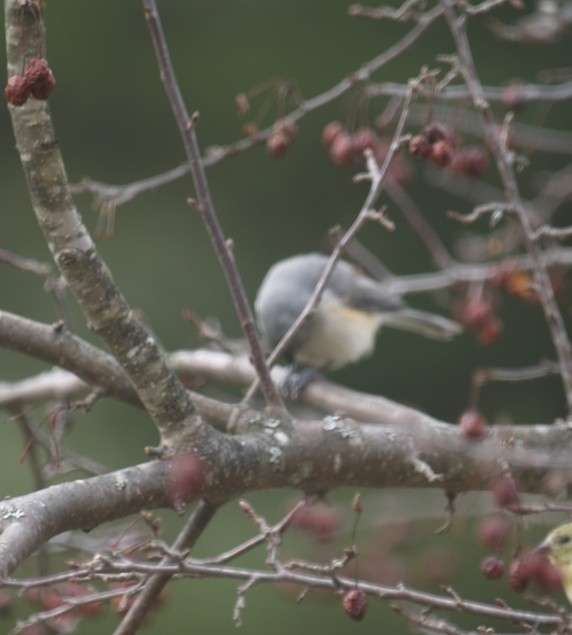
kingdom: Animalia
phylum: Chordata
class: Aves
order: Passeriformes
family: Paridae
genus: Baeolophus
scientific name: Baeolophus bicolor
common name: Tufted titmouse
